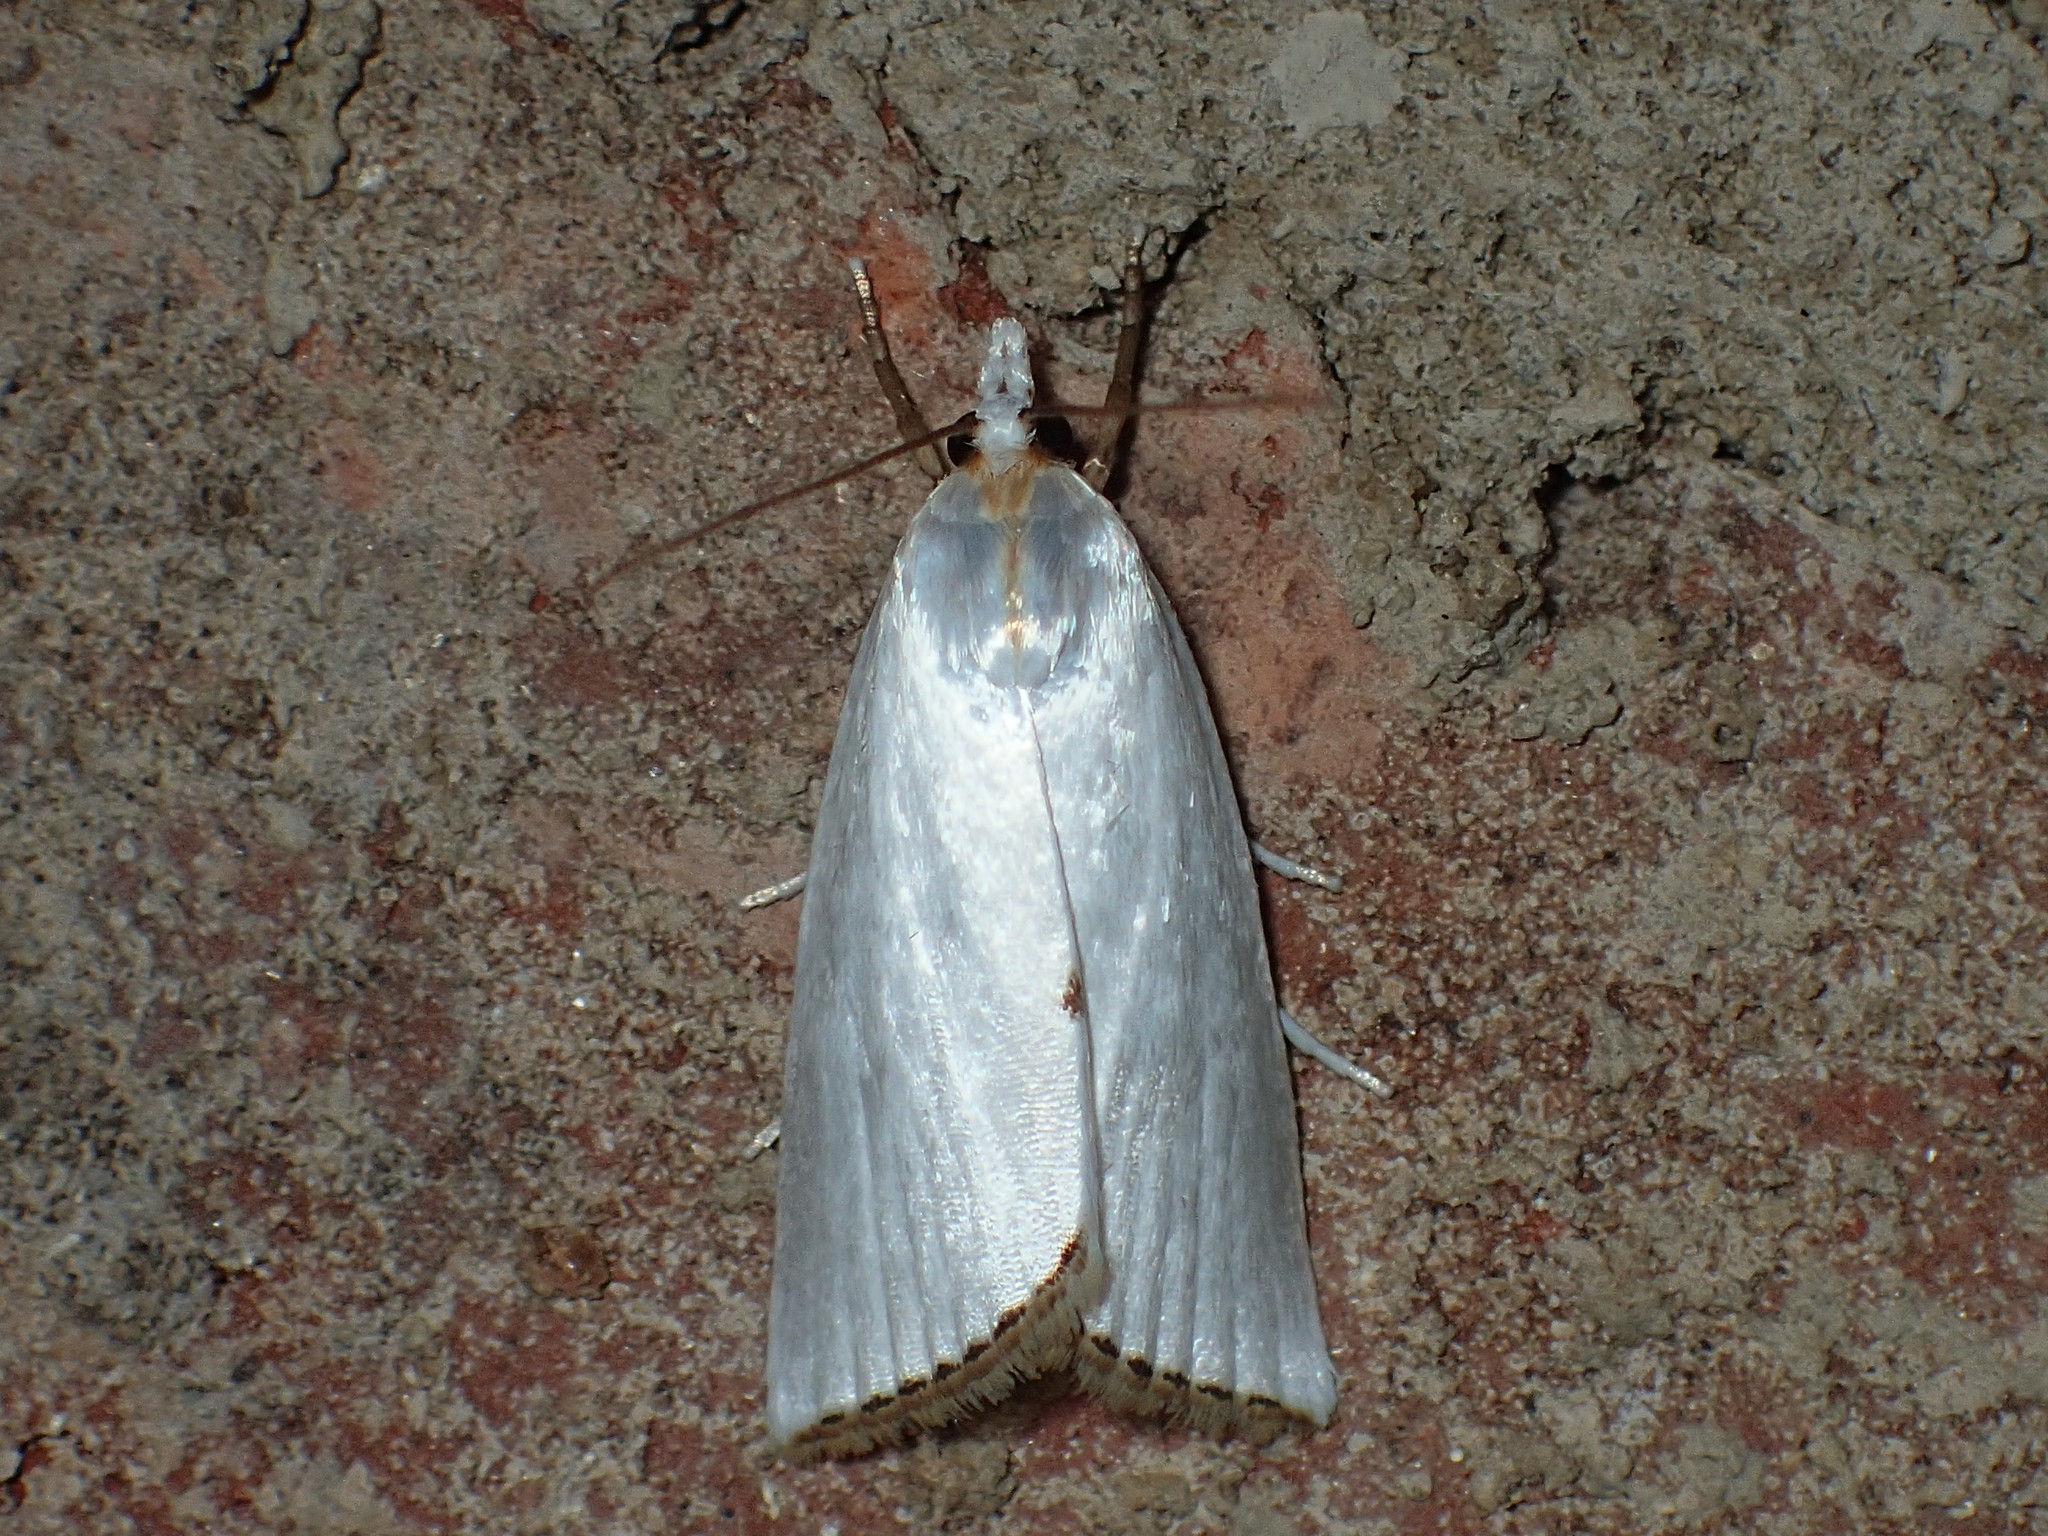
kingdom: Animalia
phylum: Arthropoda
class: Insecta
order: Lepidoptera
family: Crambidae
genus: Argyria
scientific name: Argyria nivalis
